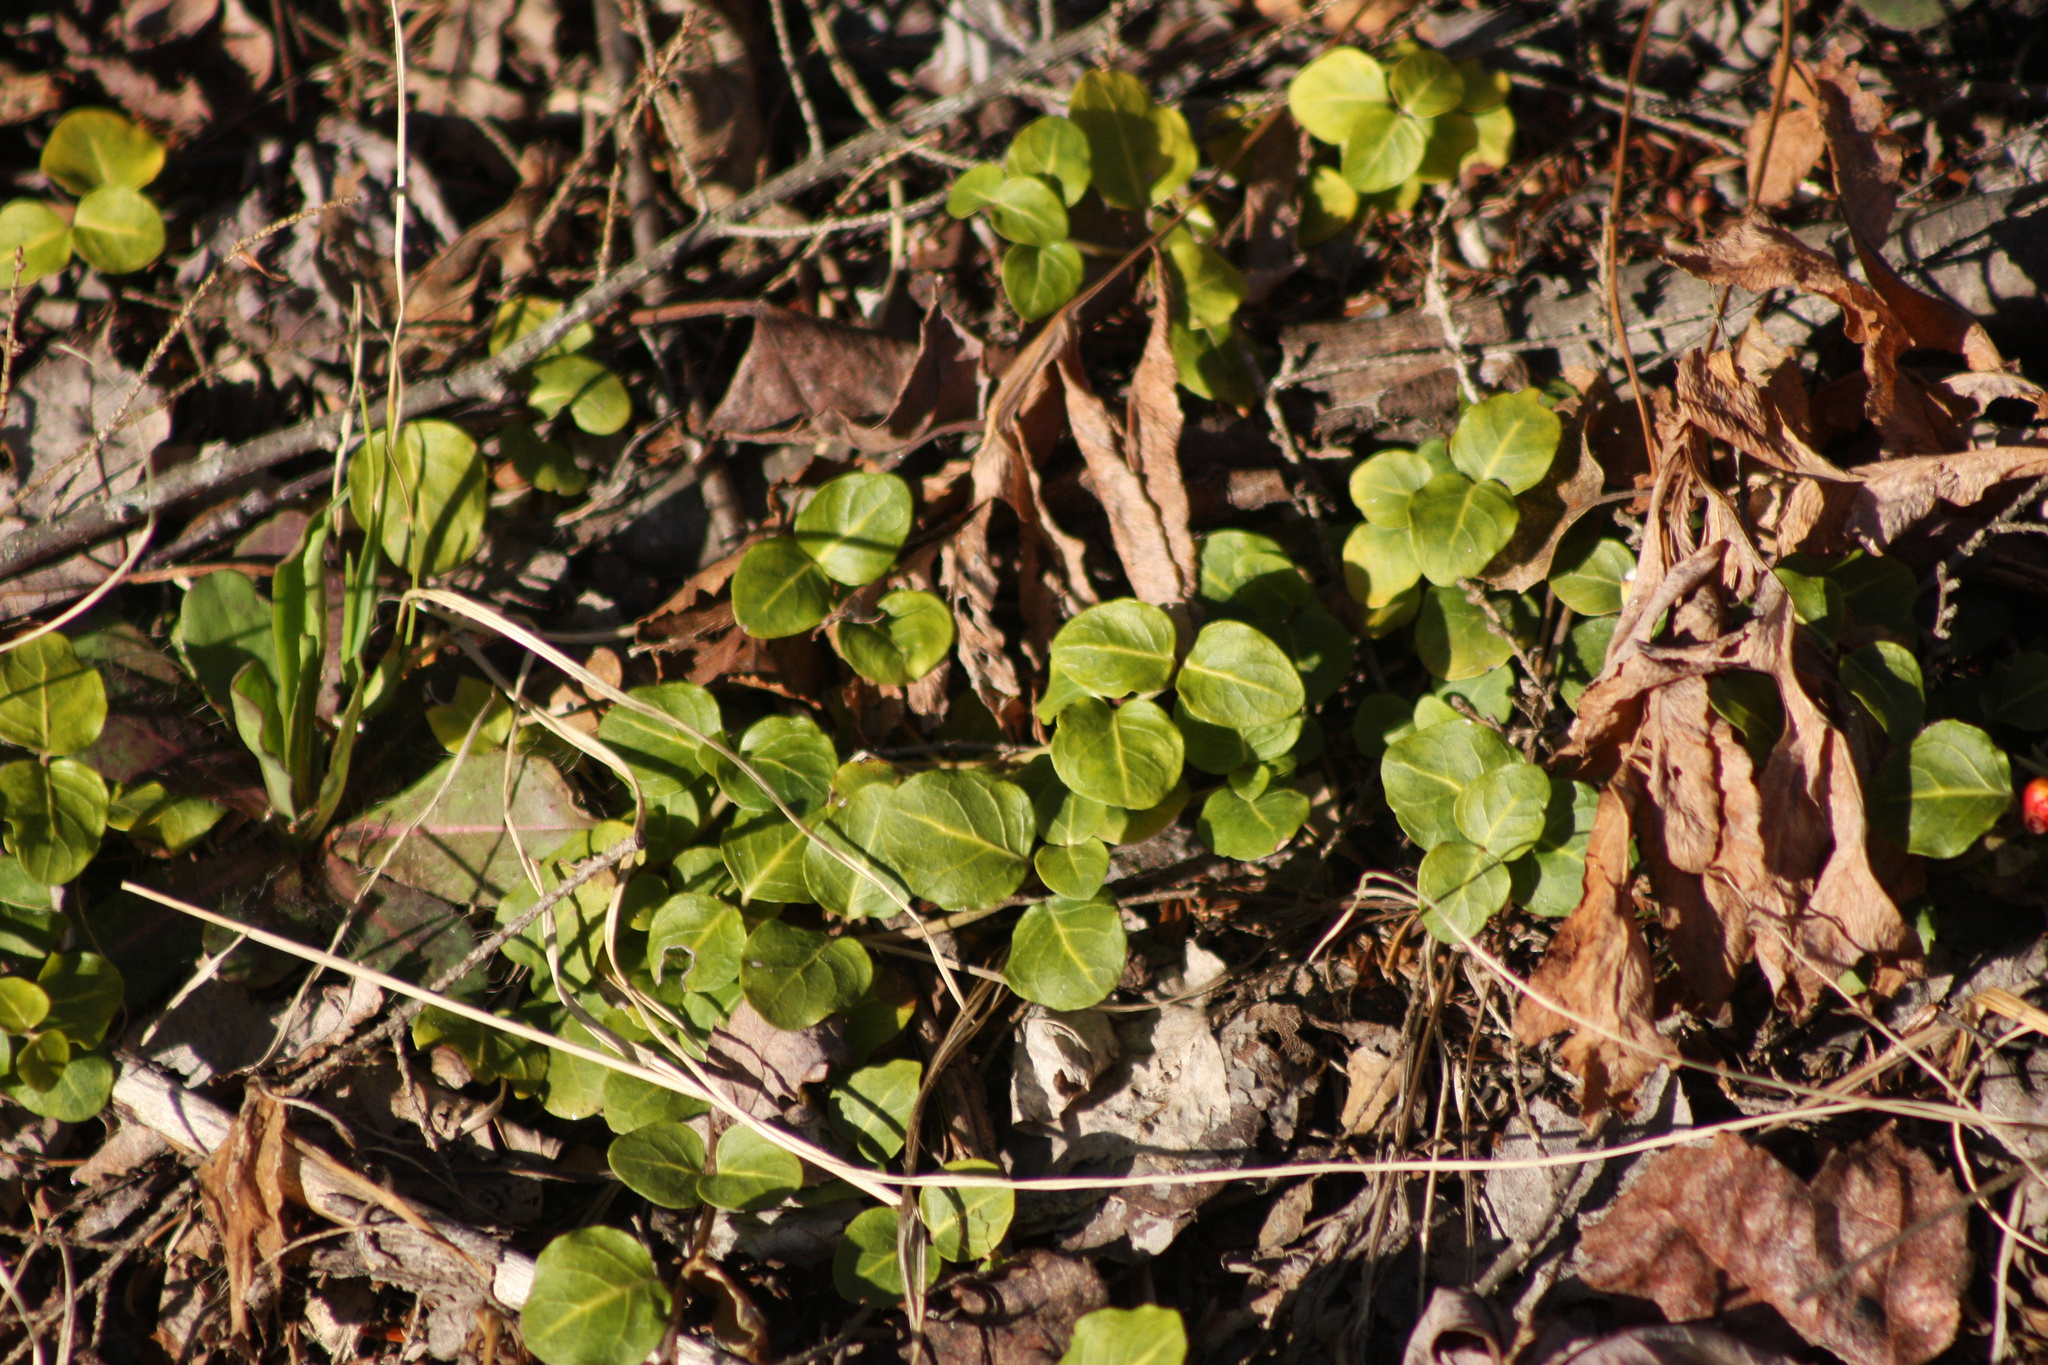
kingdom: Plantae
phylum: Tracheophyta
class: Magnoliopsida
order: Gentianales
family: Rubiaceae
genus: Mitchella
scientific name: Mitchella repens
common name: Partridge-berry
